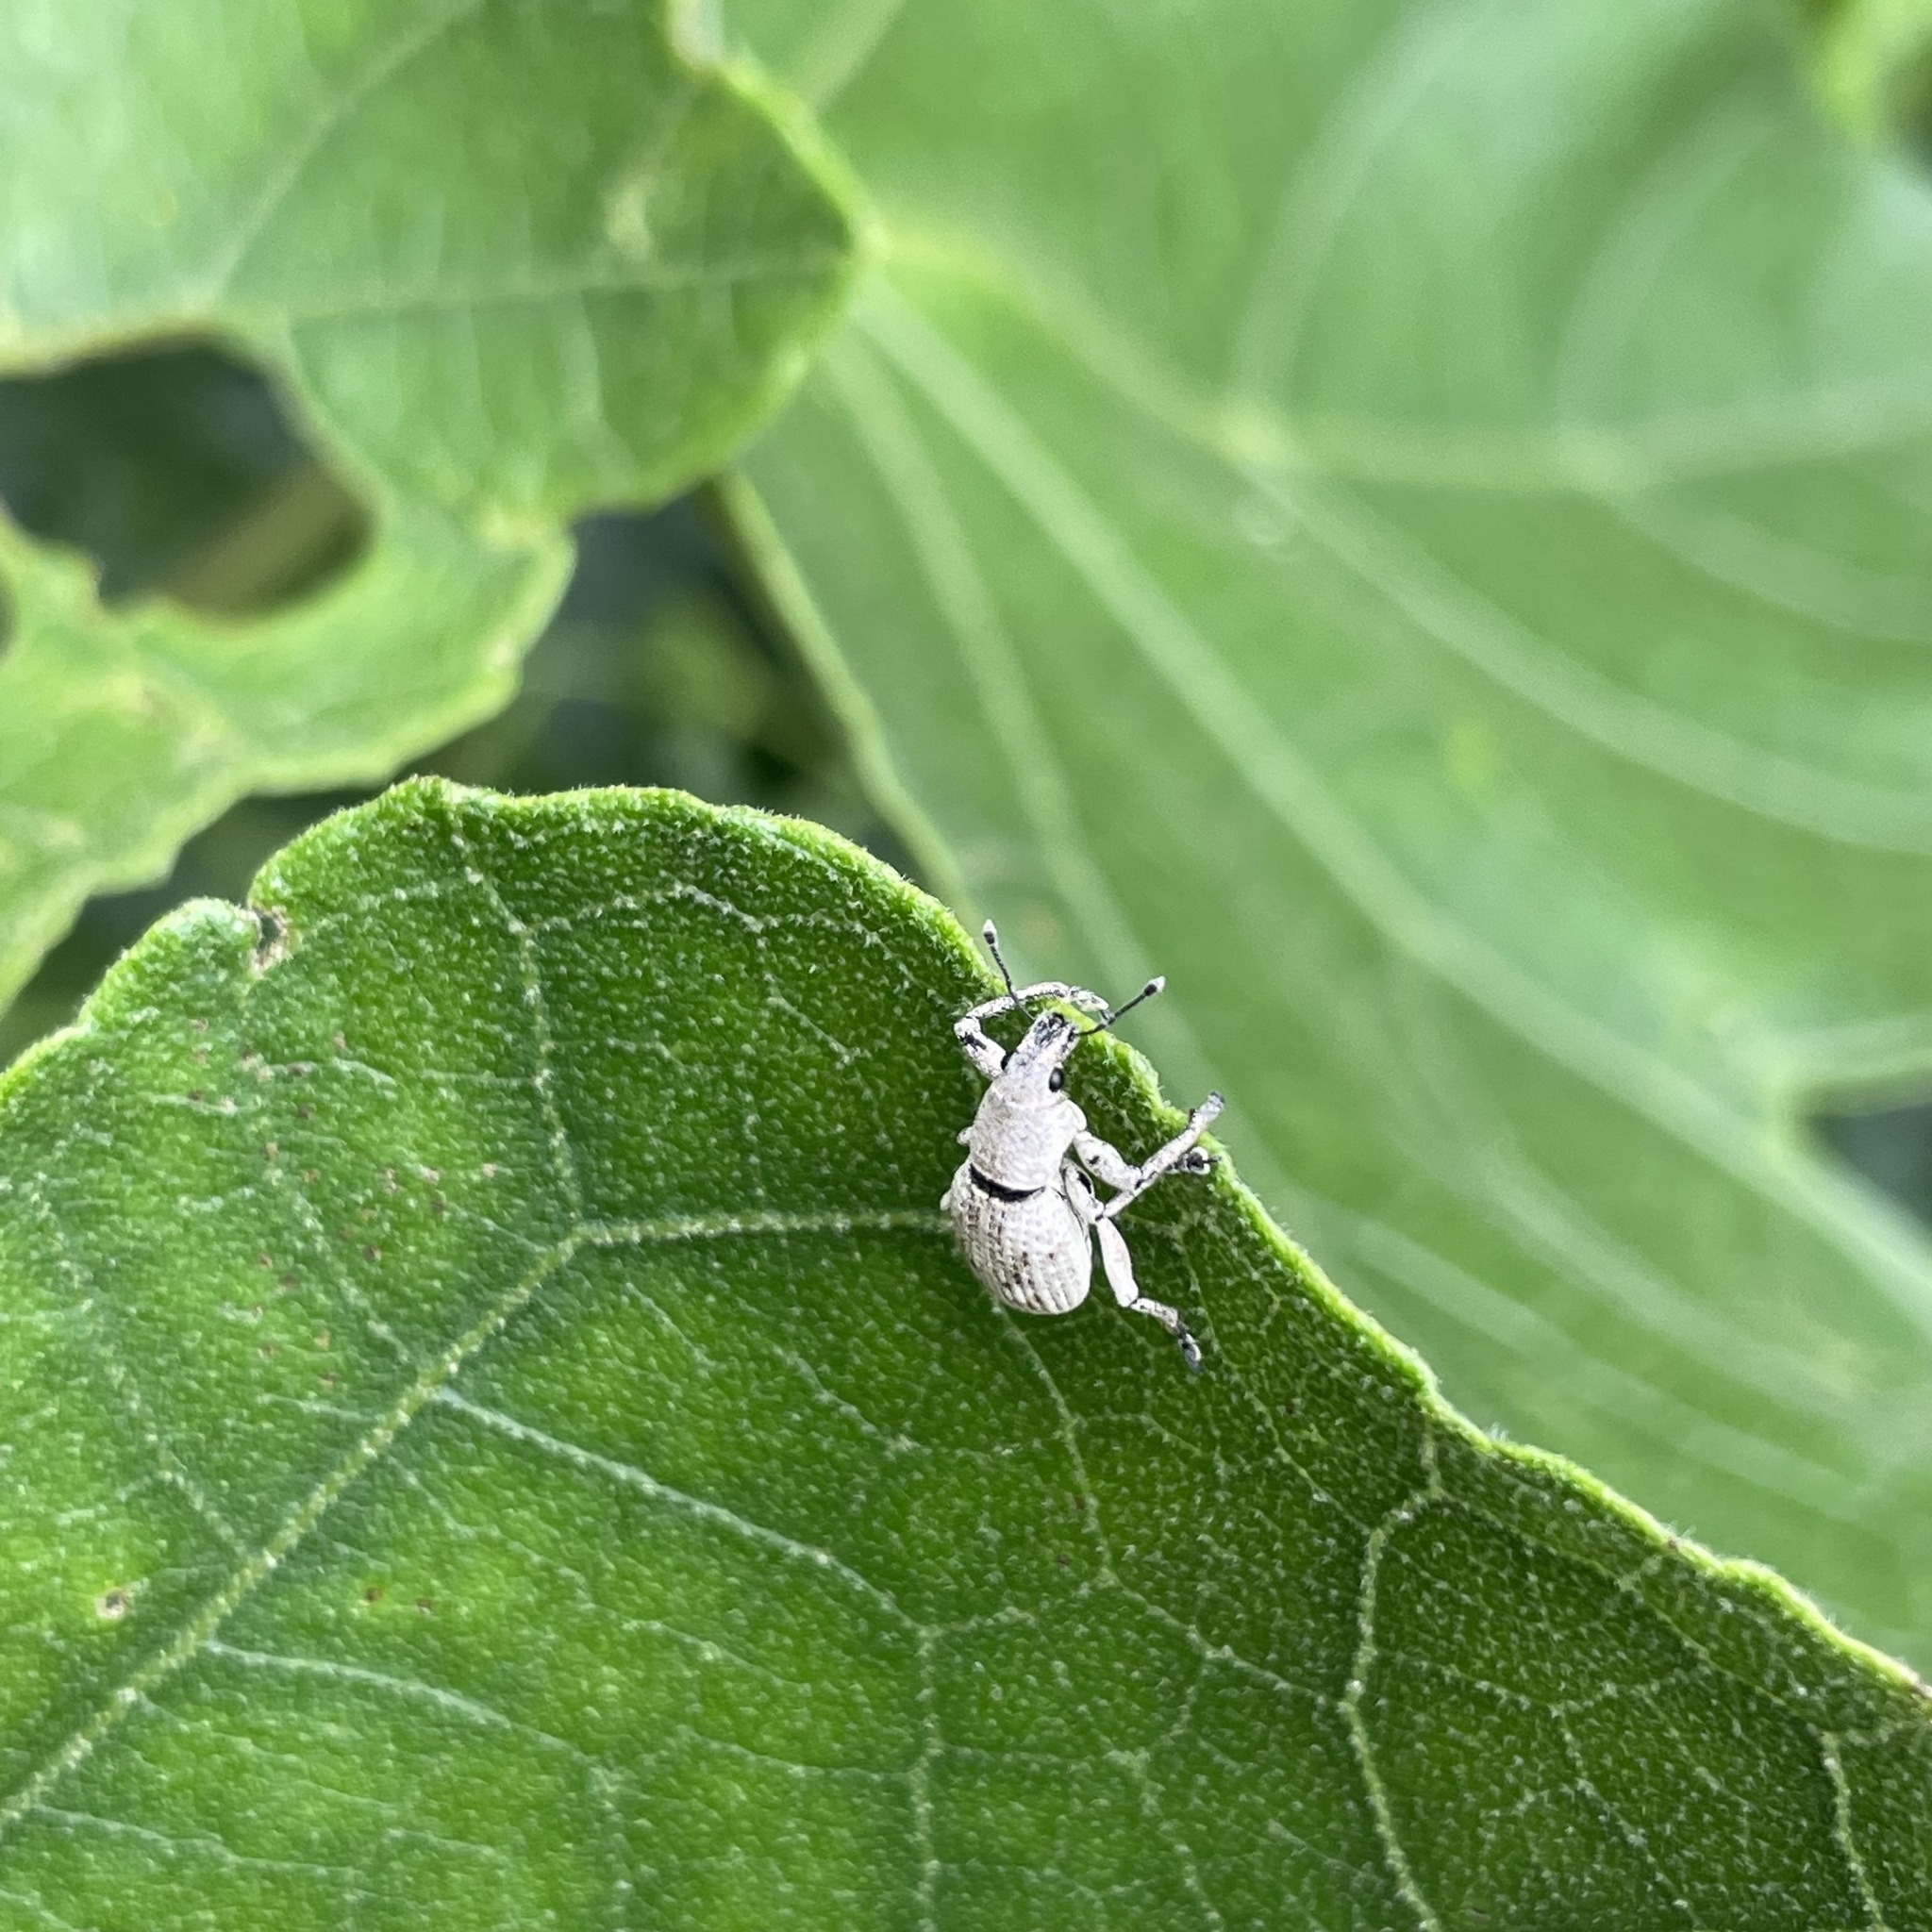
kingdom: Animalia
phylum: Arthropoda
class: Insecta
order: Coleoptera
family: Curculionidae
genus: Sympiezomias
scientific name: Sympiezomias cribricollis
